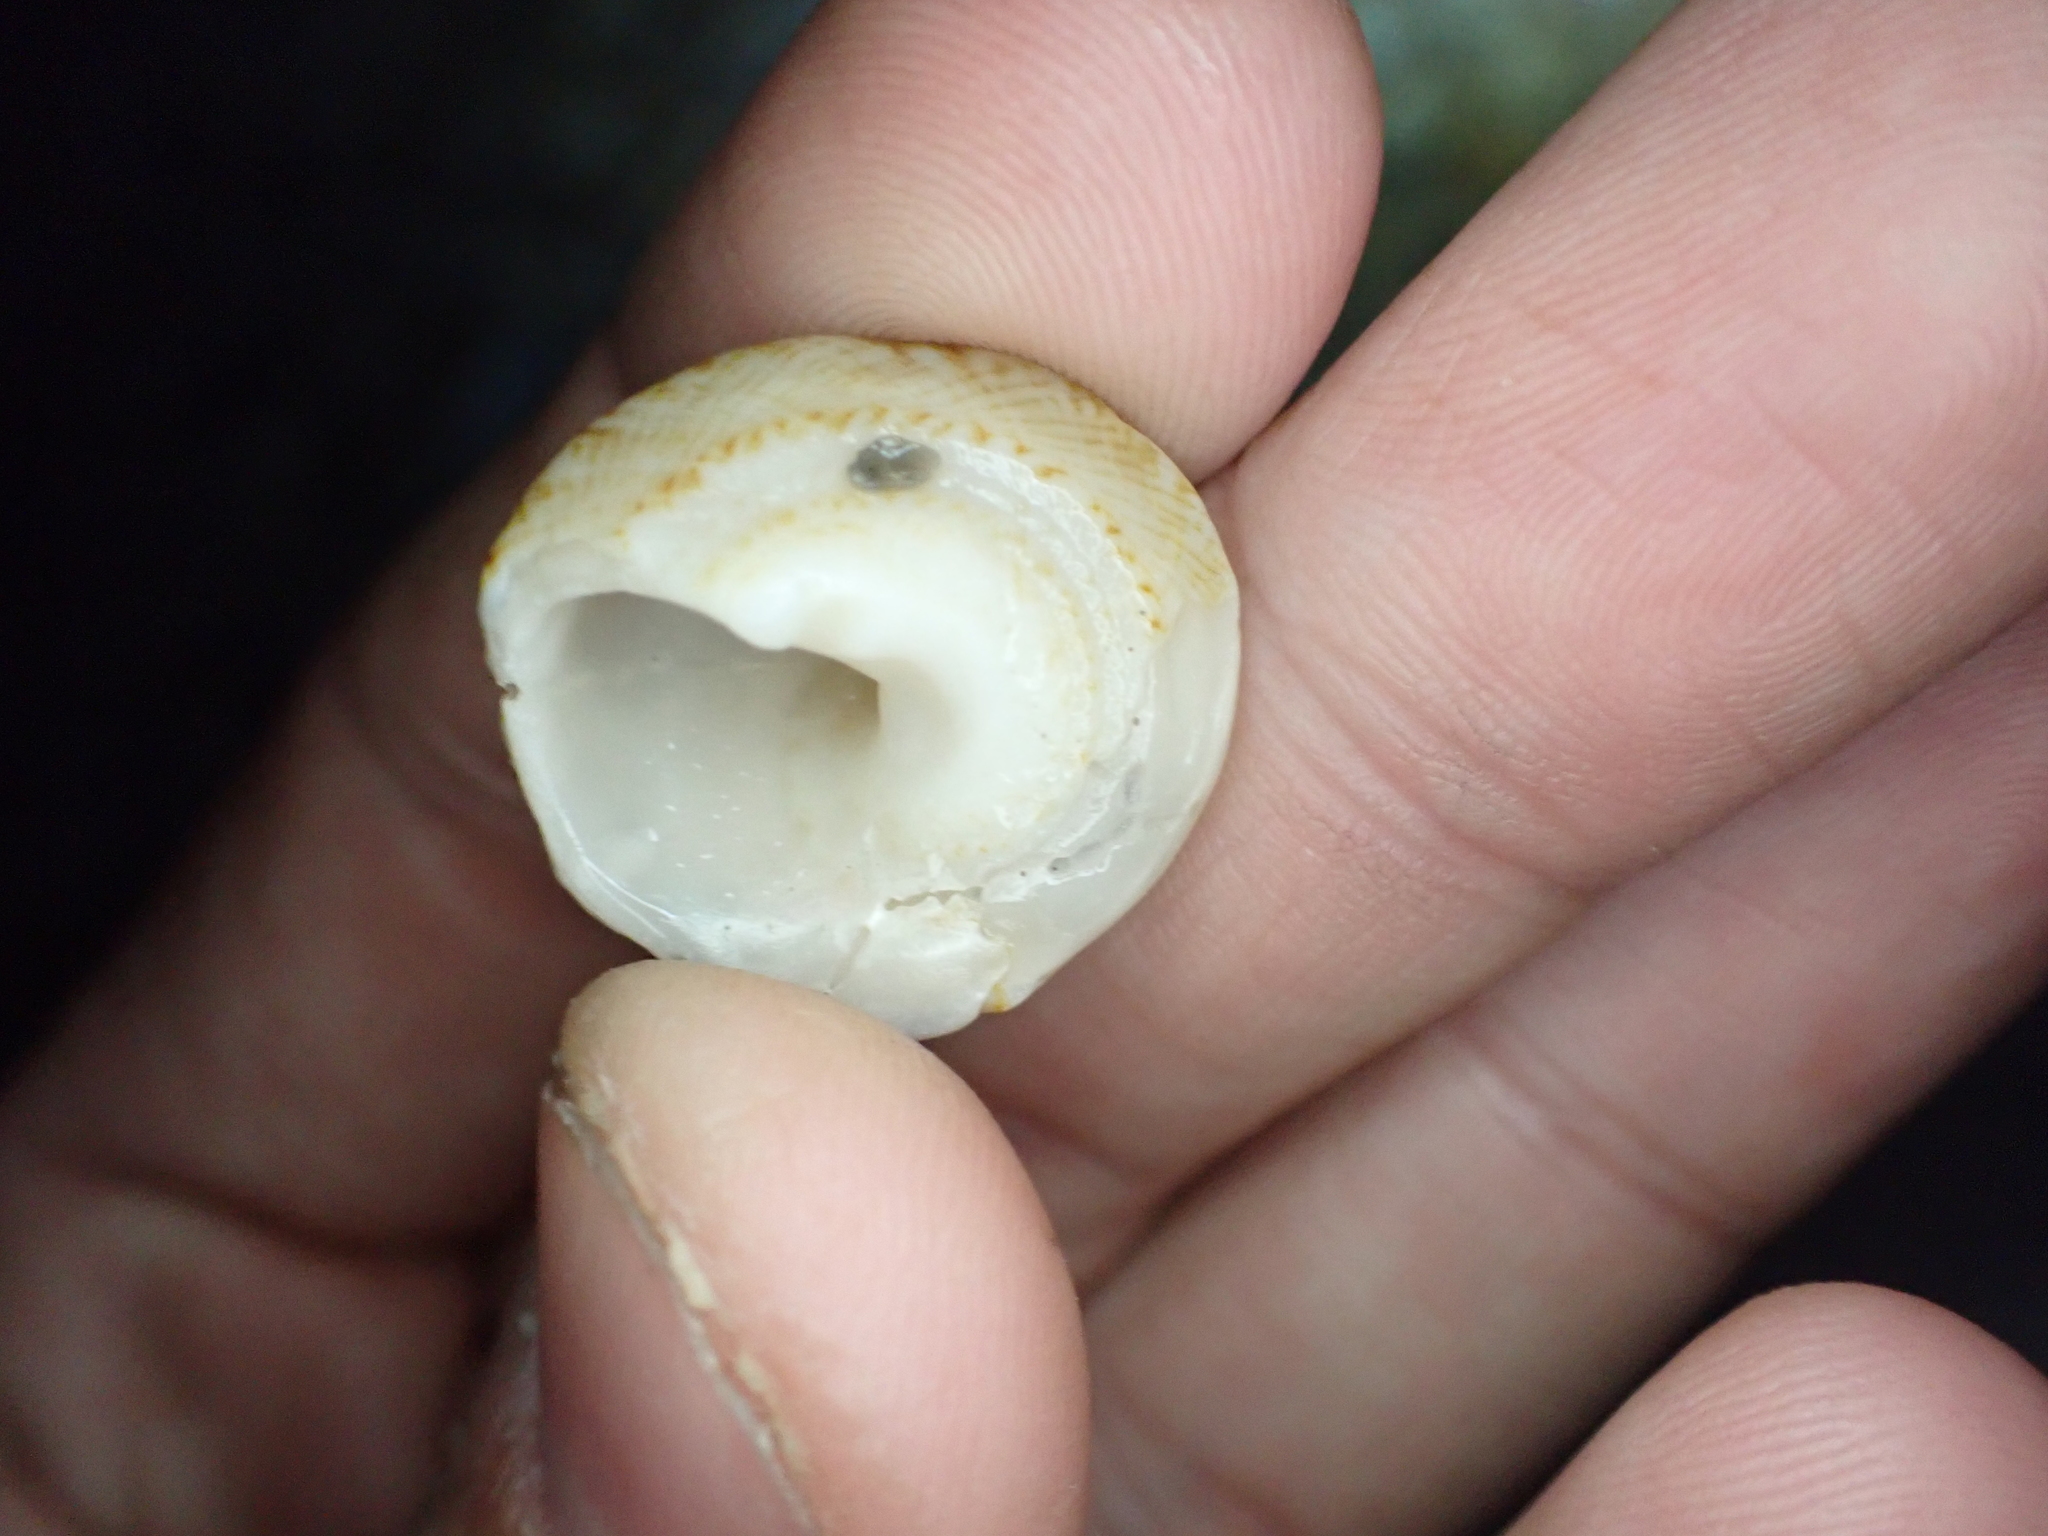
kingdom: Animalia
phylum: Mollusca
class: Gastropoda
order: Trochida
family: Turbinidae
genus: Lithopoma
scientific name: Lithopoma tuber
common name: Green starsnail
